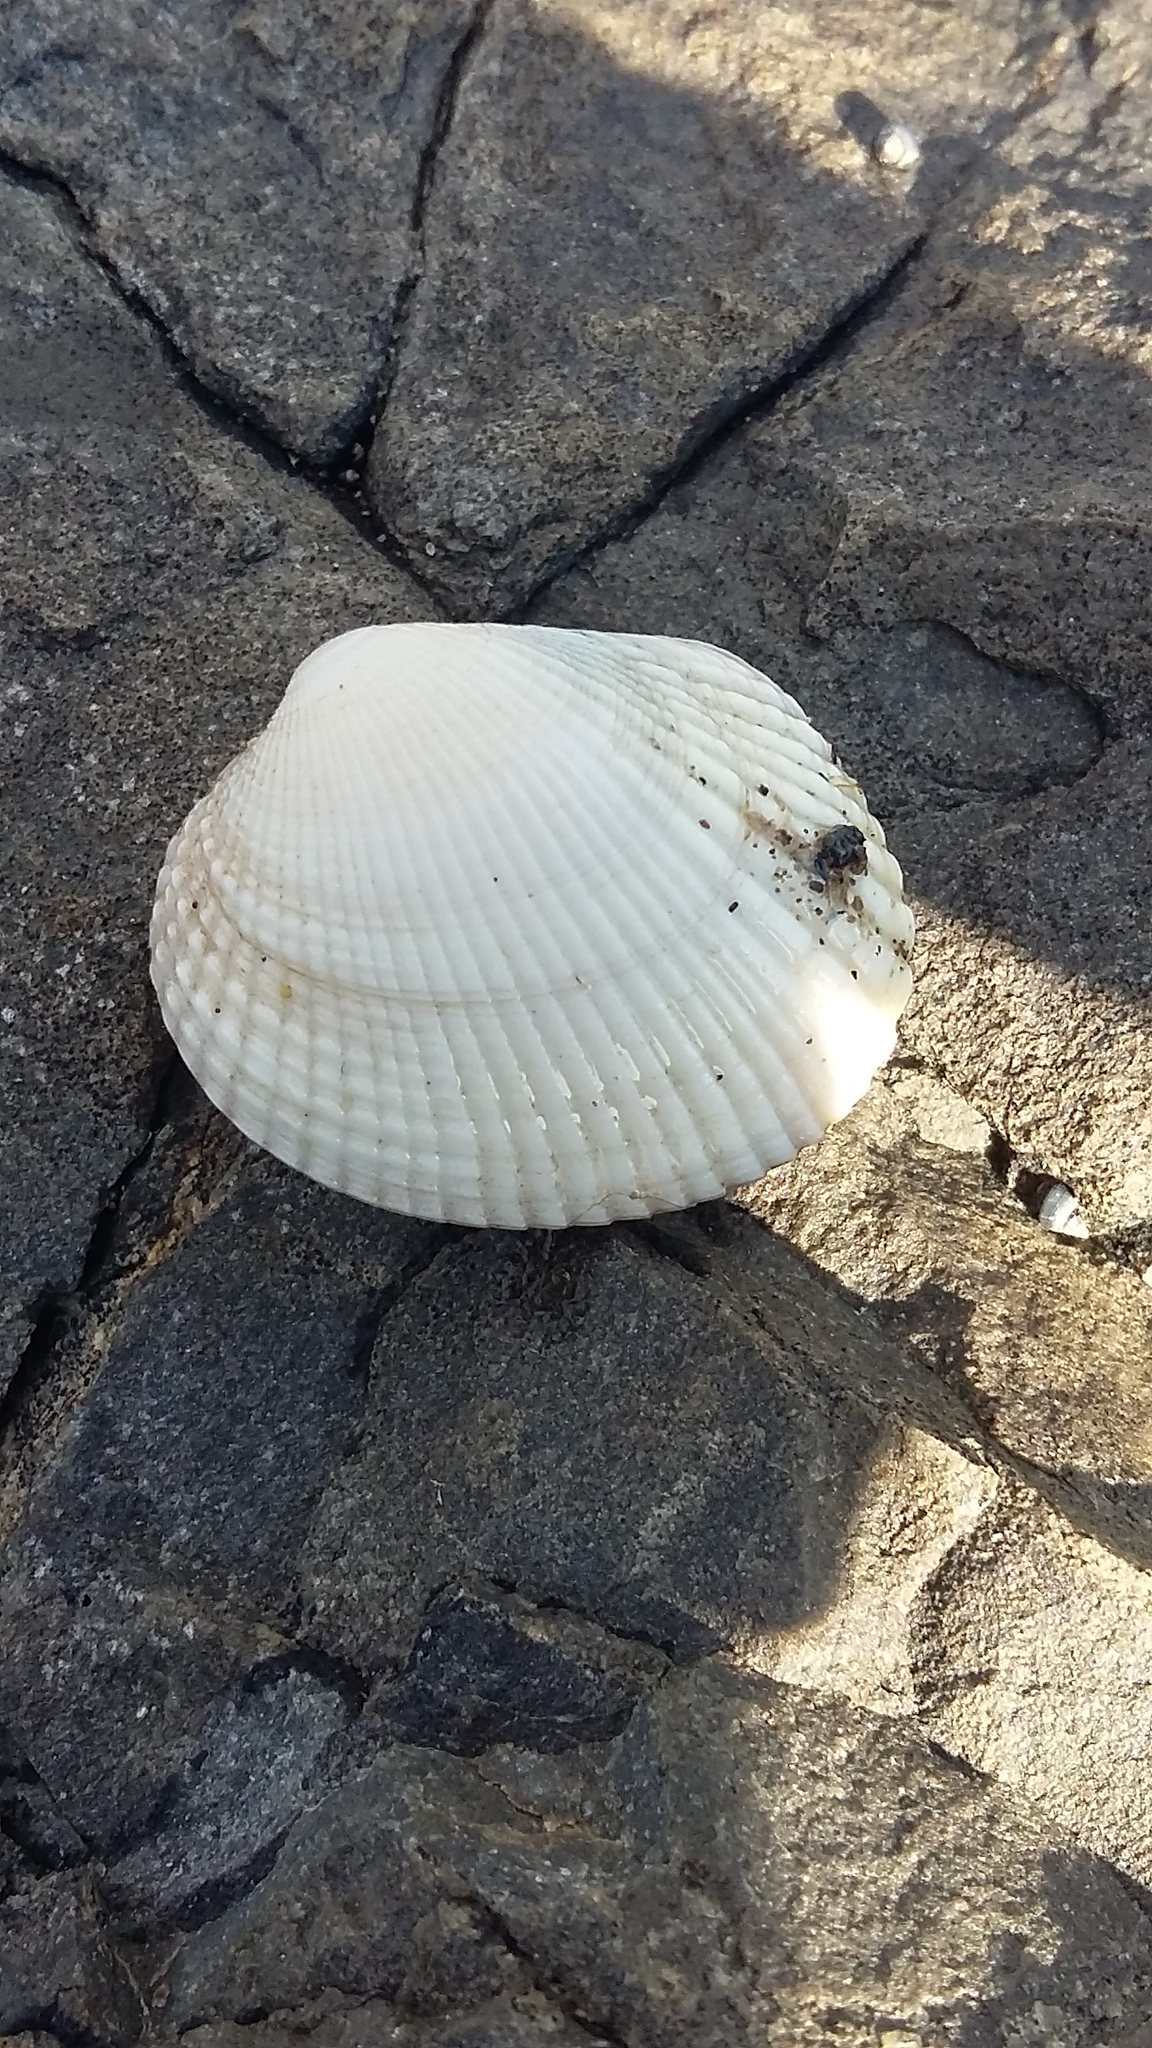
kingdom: Animalia
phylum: Mollusca
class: Bivalvia
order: Venerida
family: Veneridae
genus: Leukoma
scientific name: Leukoma crassicosta
